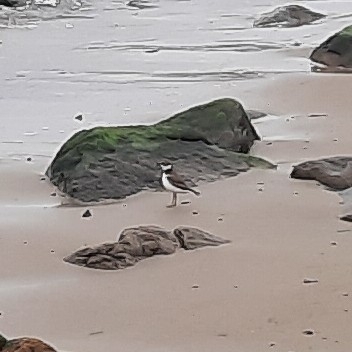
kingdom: Animalia
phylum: Chordata
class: Aves
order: Charadriiformes
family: Charadriidae
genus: Charadrius
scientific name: Charadrius semipalmatus
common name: Semipalmated plover
